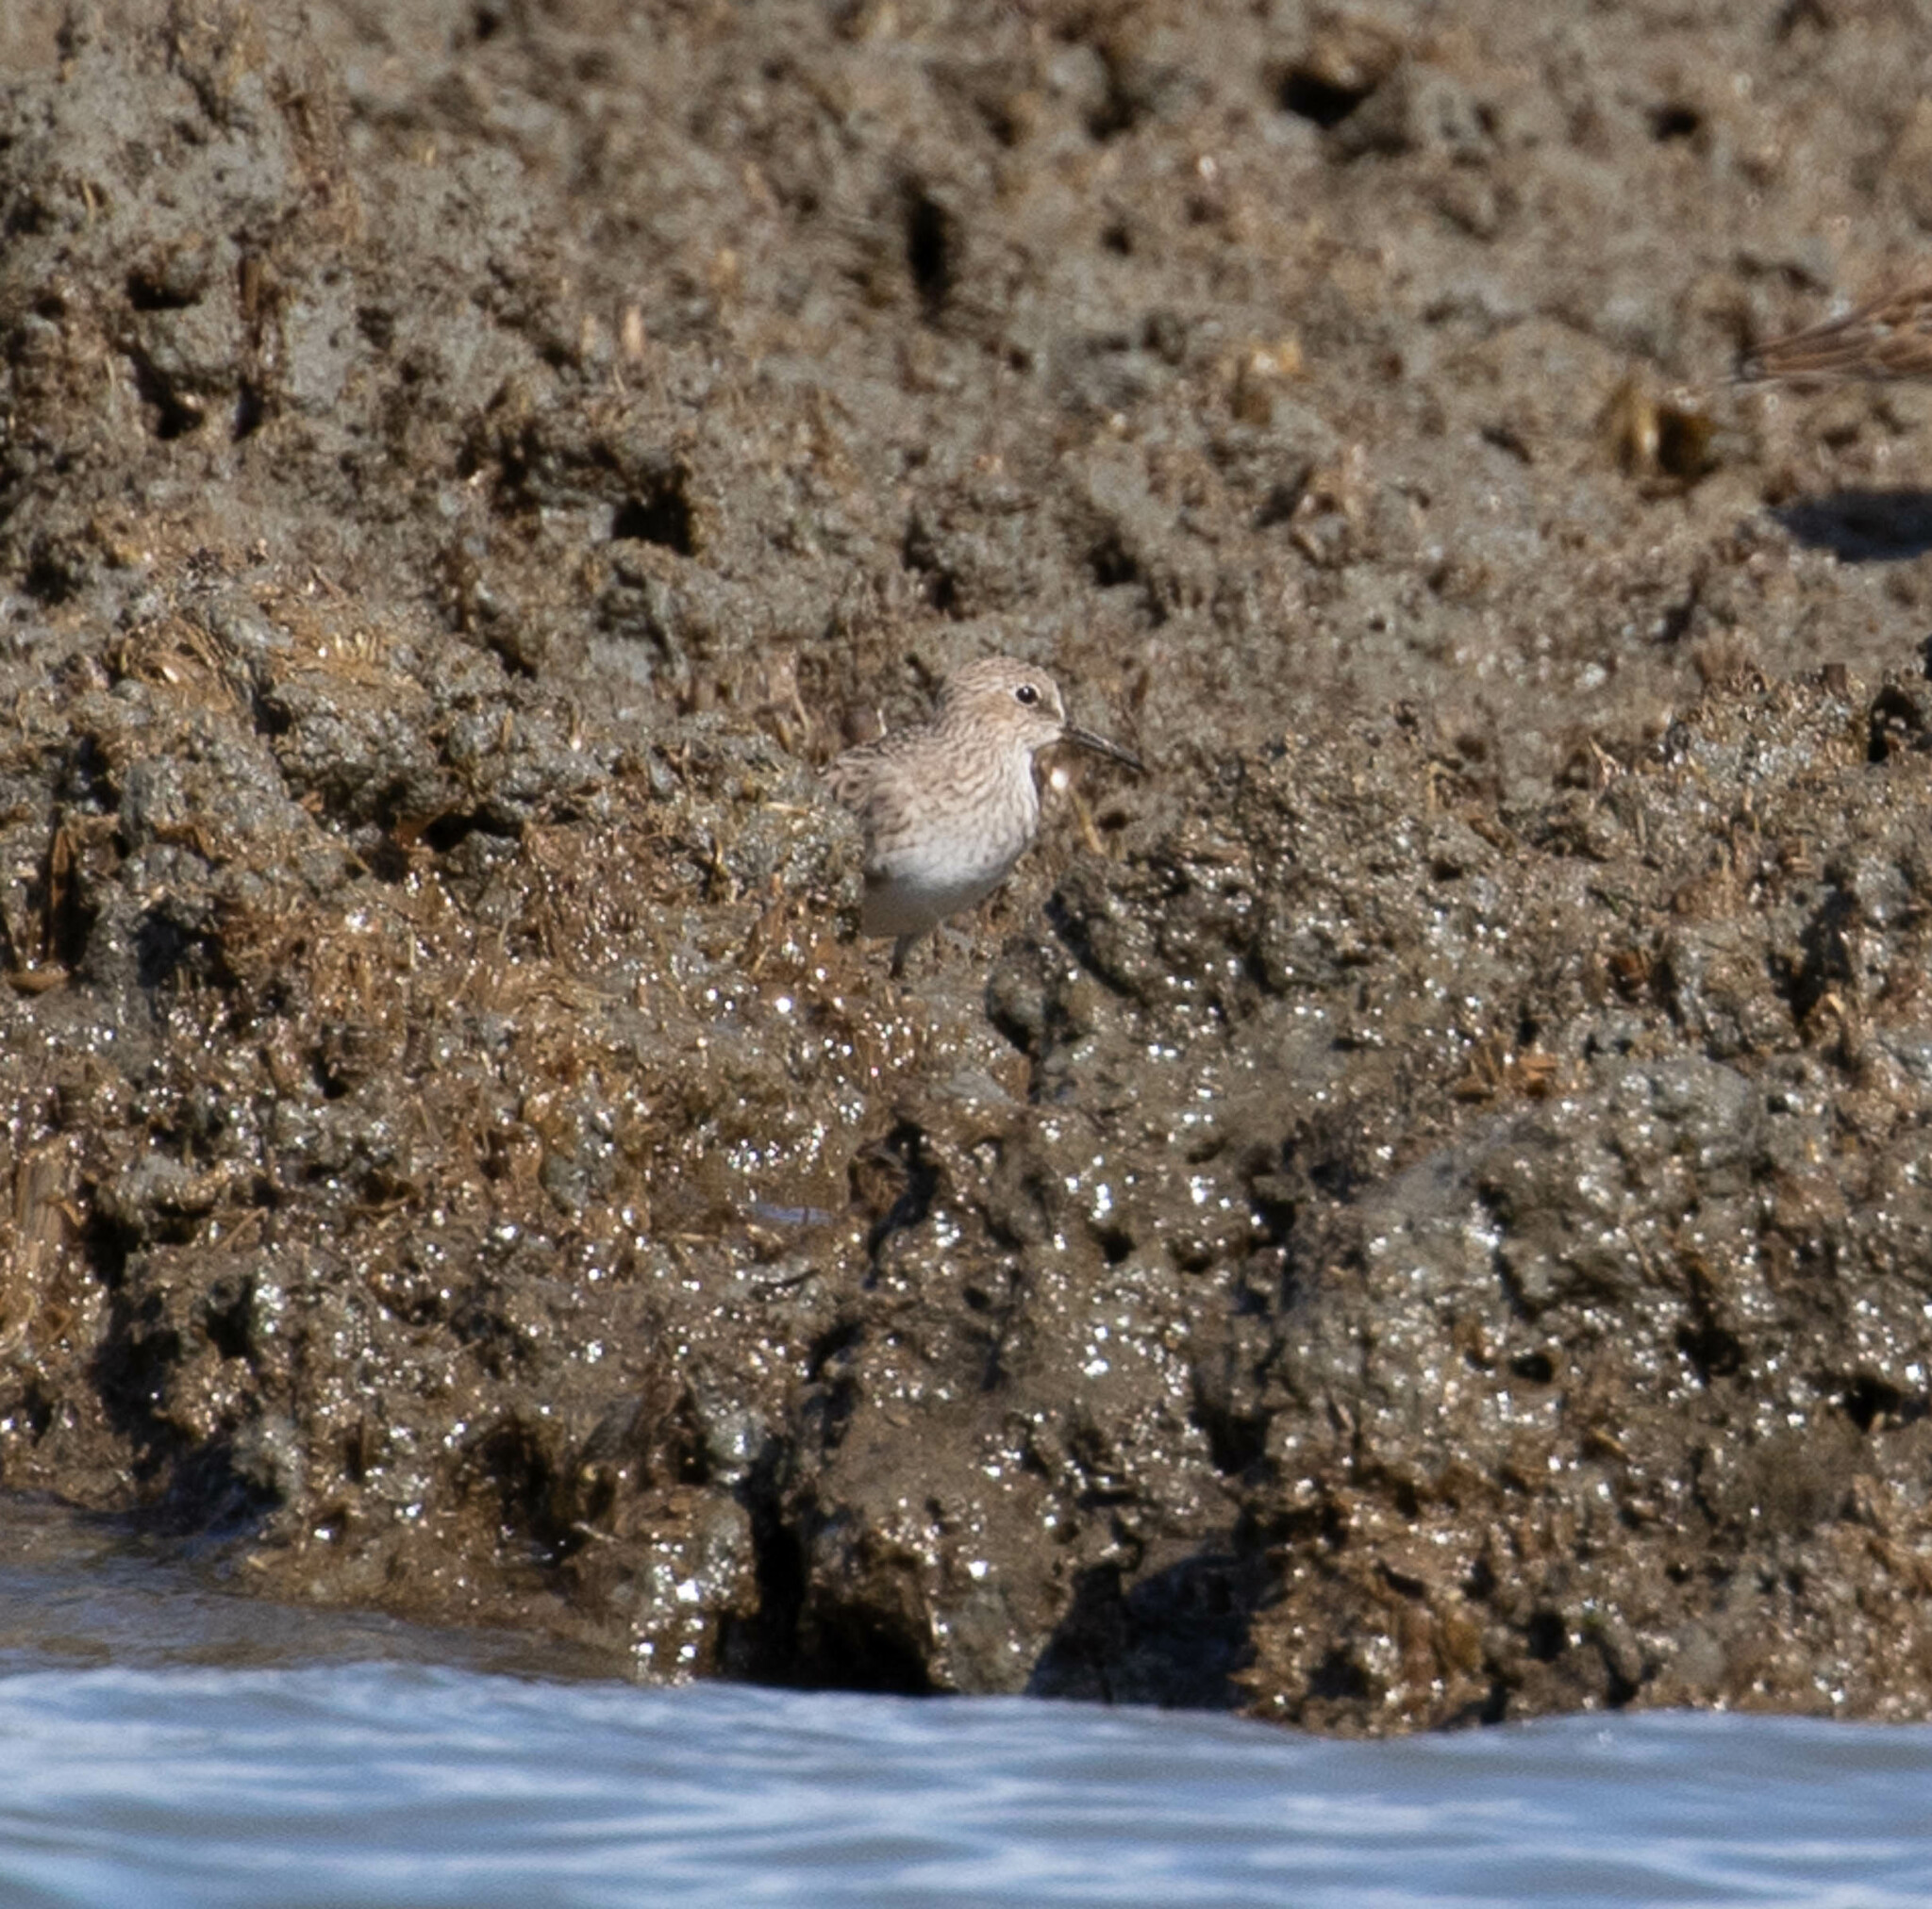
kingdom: Animalia
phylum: Chordata
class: Aves
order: Charadriiformes
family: Scolopacidae
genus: Calidris
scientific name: Calidris minutilla
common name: Least sandpiper
